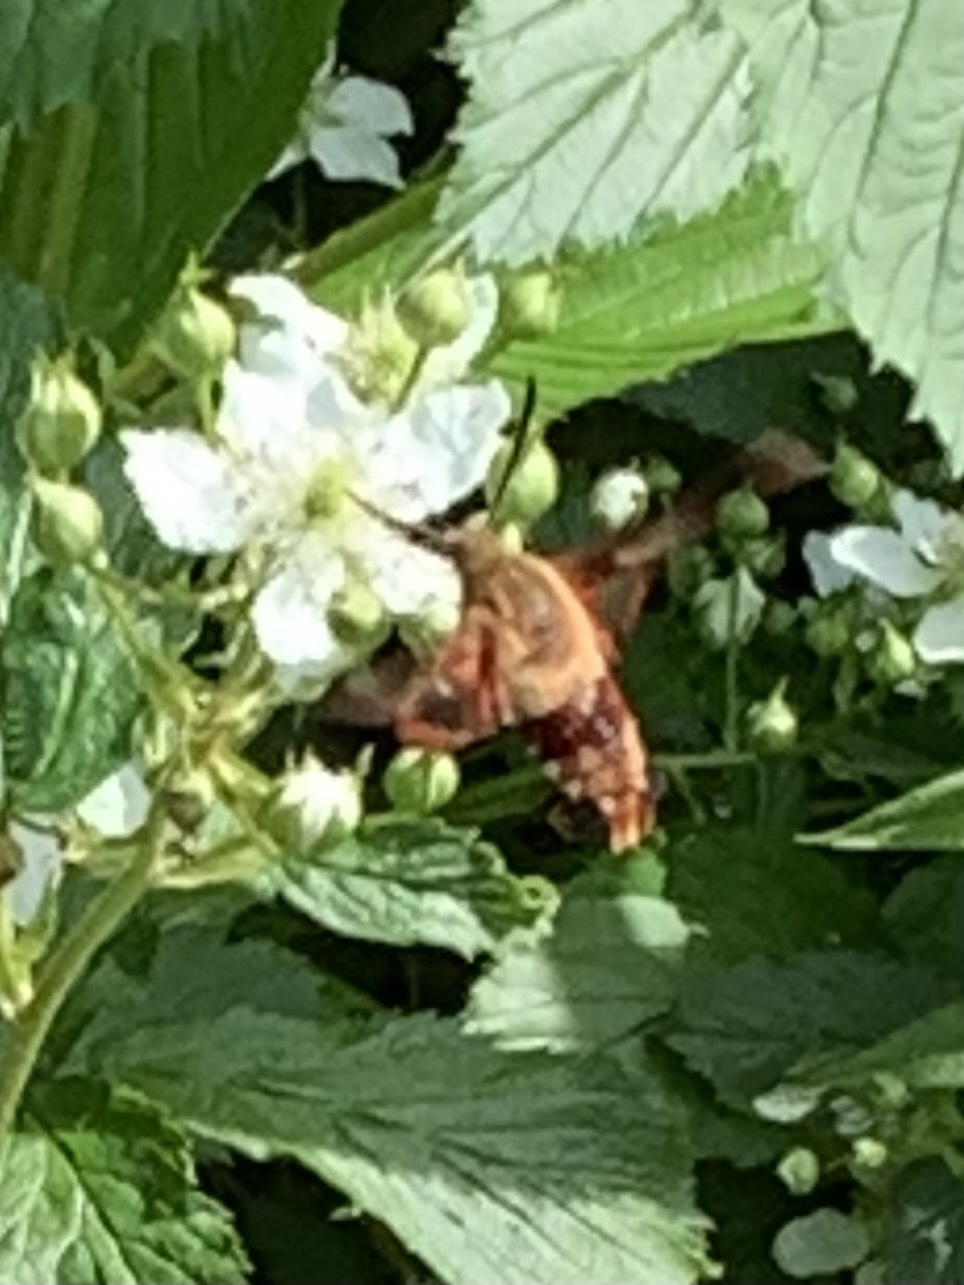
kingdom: Animalia
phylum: Arthropoda
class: Insecta
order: Lepidoptera
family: Sphingidae
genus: Hemaris
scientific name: Hemaris thysbe
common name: Common clear-wing
